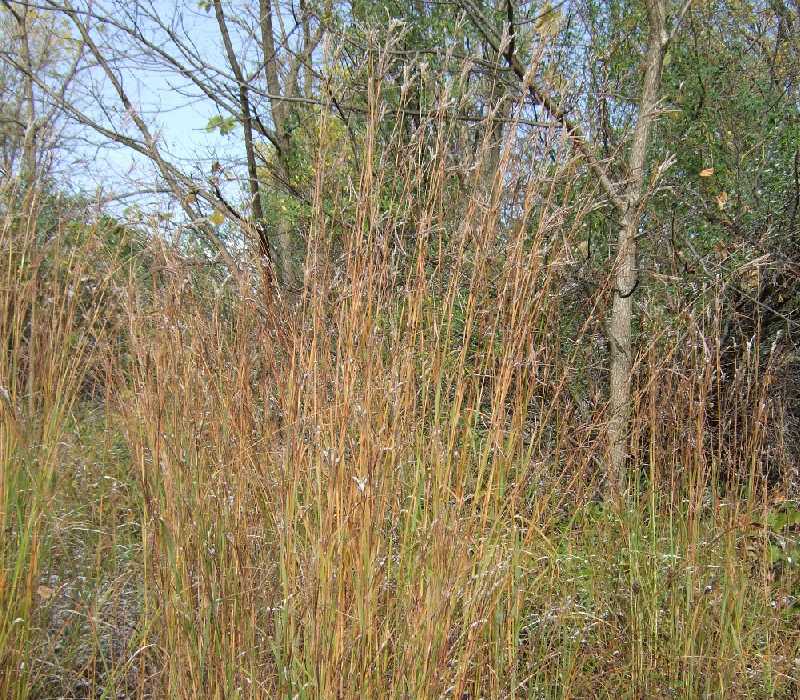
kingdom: Plantae
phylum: Tracheophyta
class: Liliopsida
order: Poales
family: Poaceae
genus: Andropogon
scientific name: Andropogon gerardi
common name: Big bluestem
